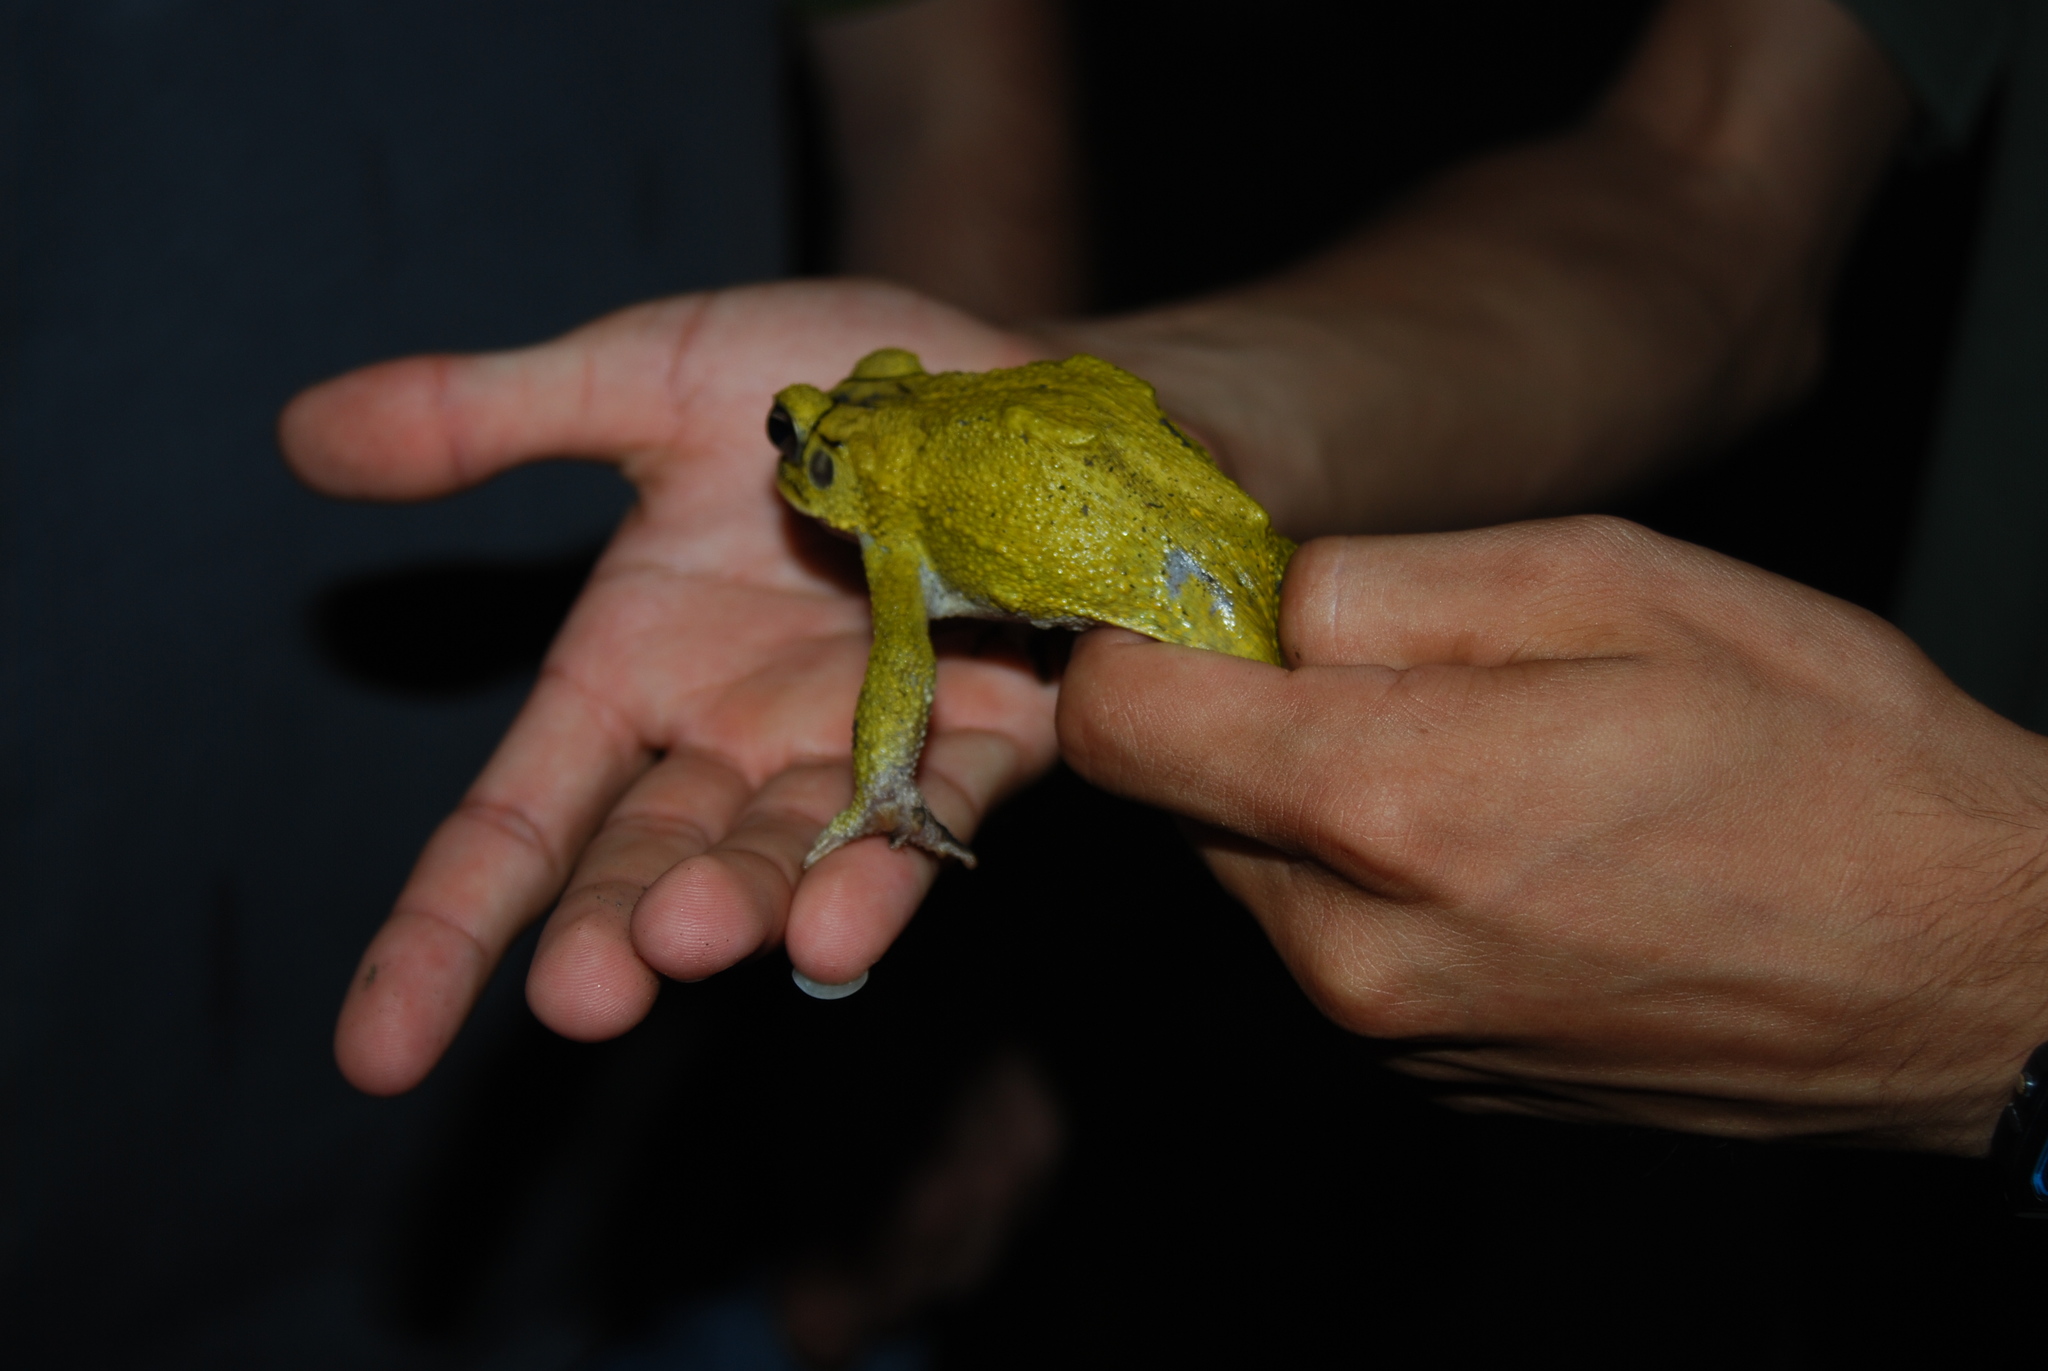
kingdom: Animalia
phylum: Chordata
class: Amphibia
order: Anura
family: Bufonidae
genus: Incilius
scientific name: Incilius luetkenii
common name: Yellow toad
